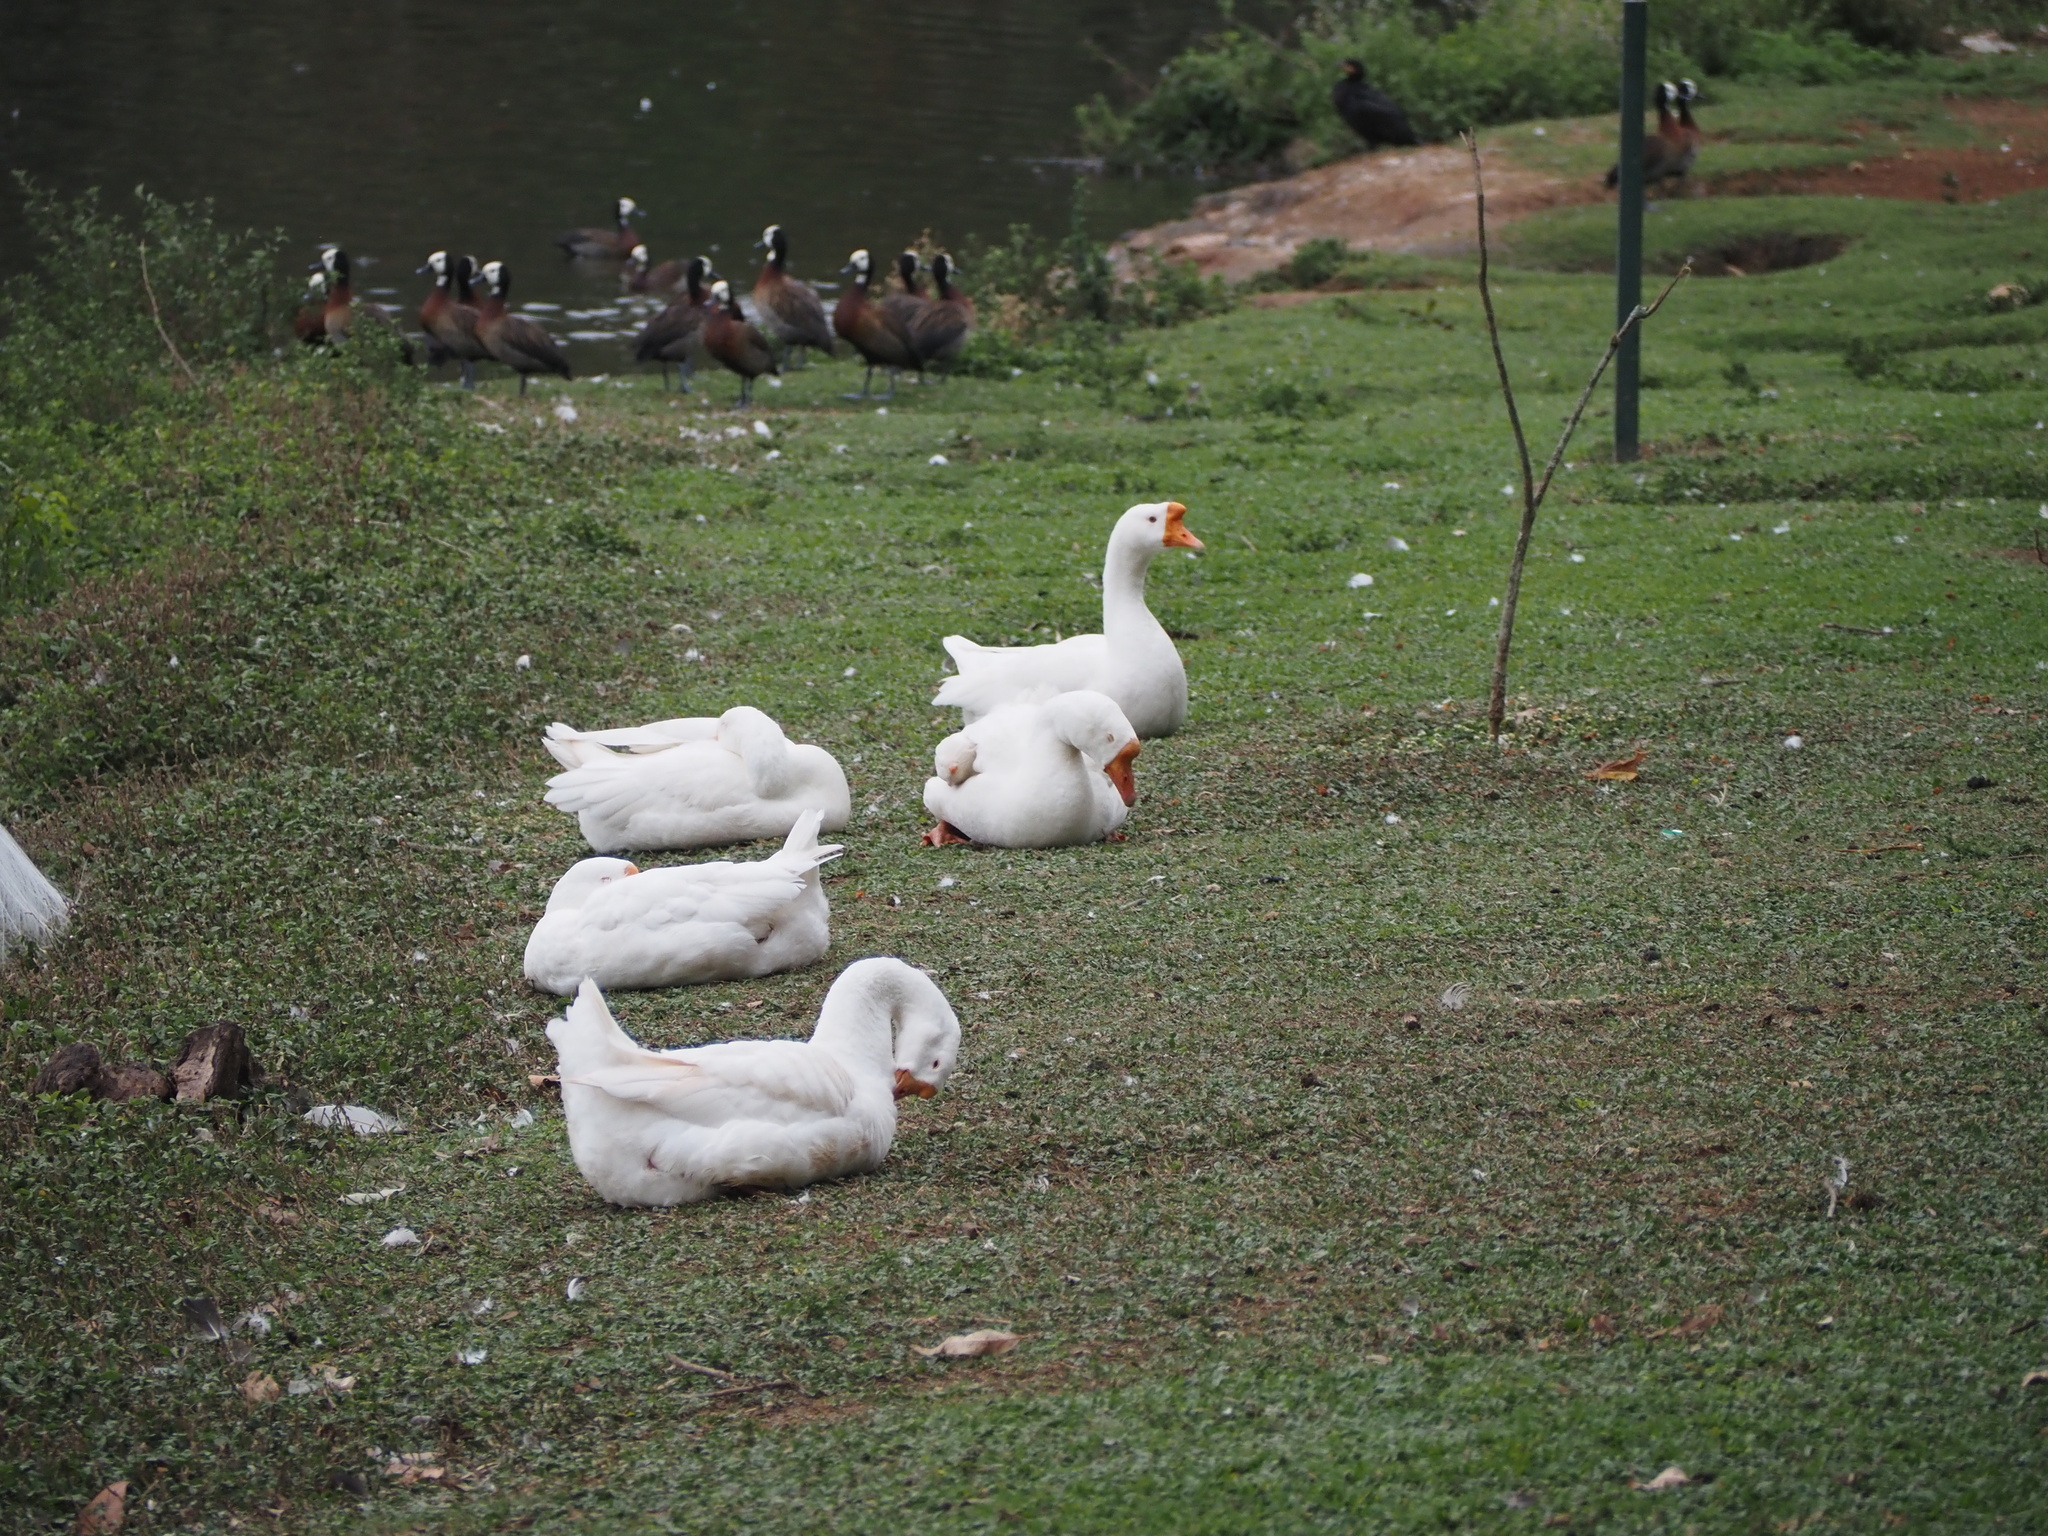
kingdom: Animalia
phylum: Chordata
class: Aves
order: Anseriformes
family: Anatidae
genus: Anser
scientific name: Anser cygnoides
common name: Swan goose
